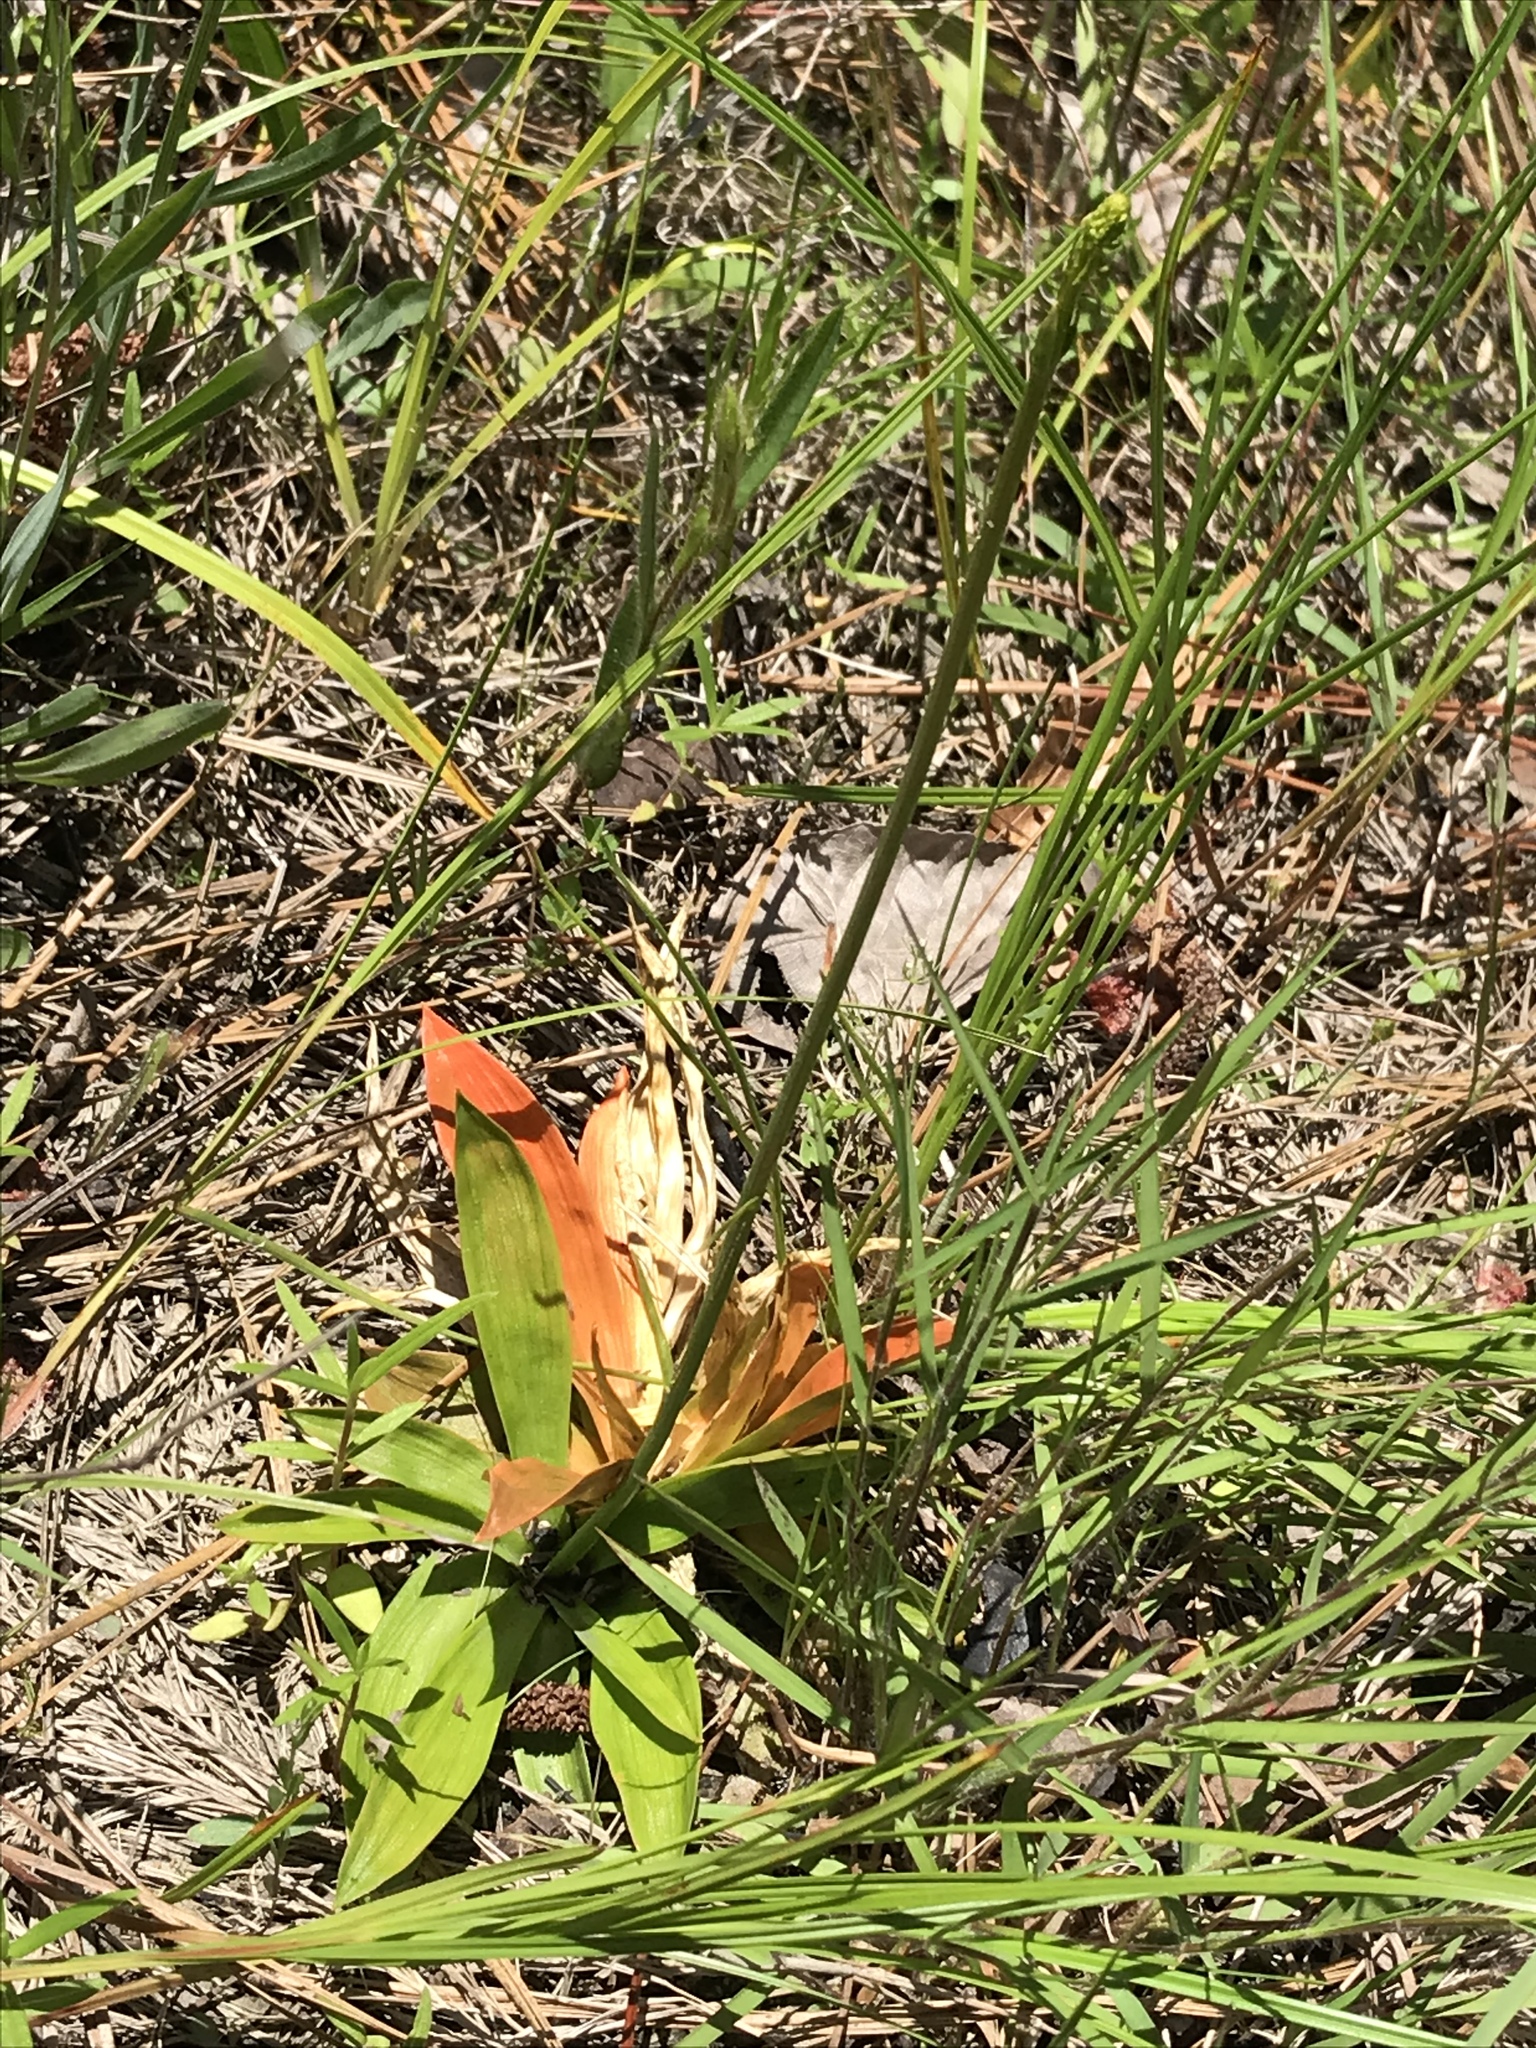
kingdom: Plantae
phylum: Tracheophyta
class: Liliopsida
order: Dioscoreales
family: Nartheciaceae
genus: Aletris
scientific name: Aletris aurea
